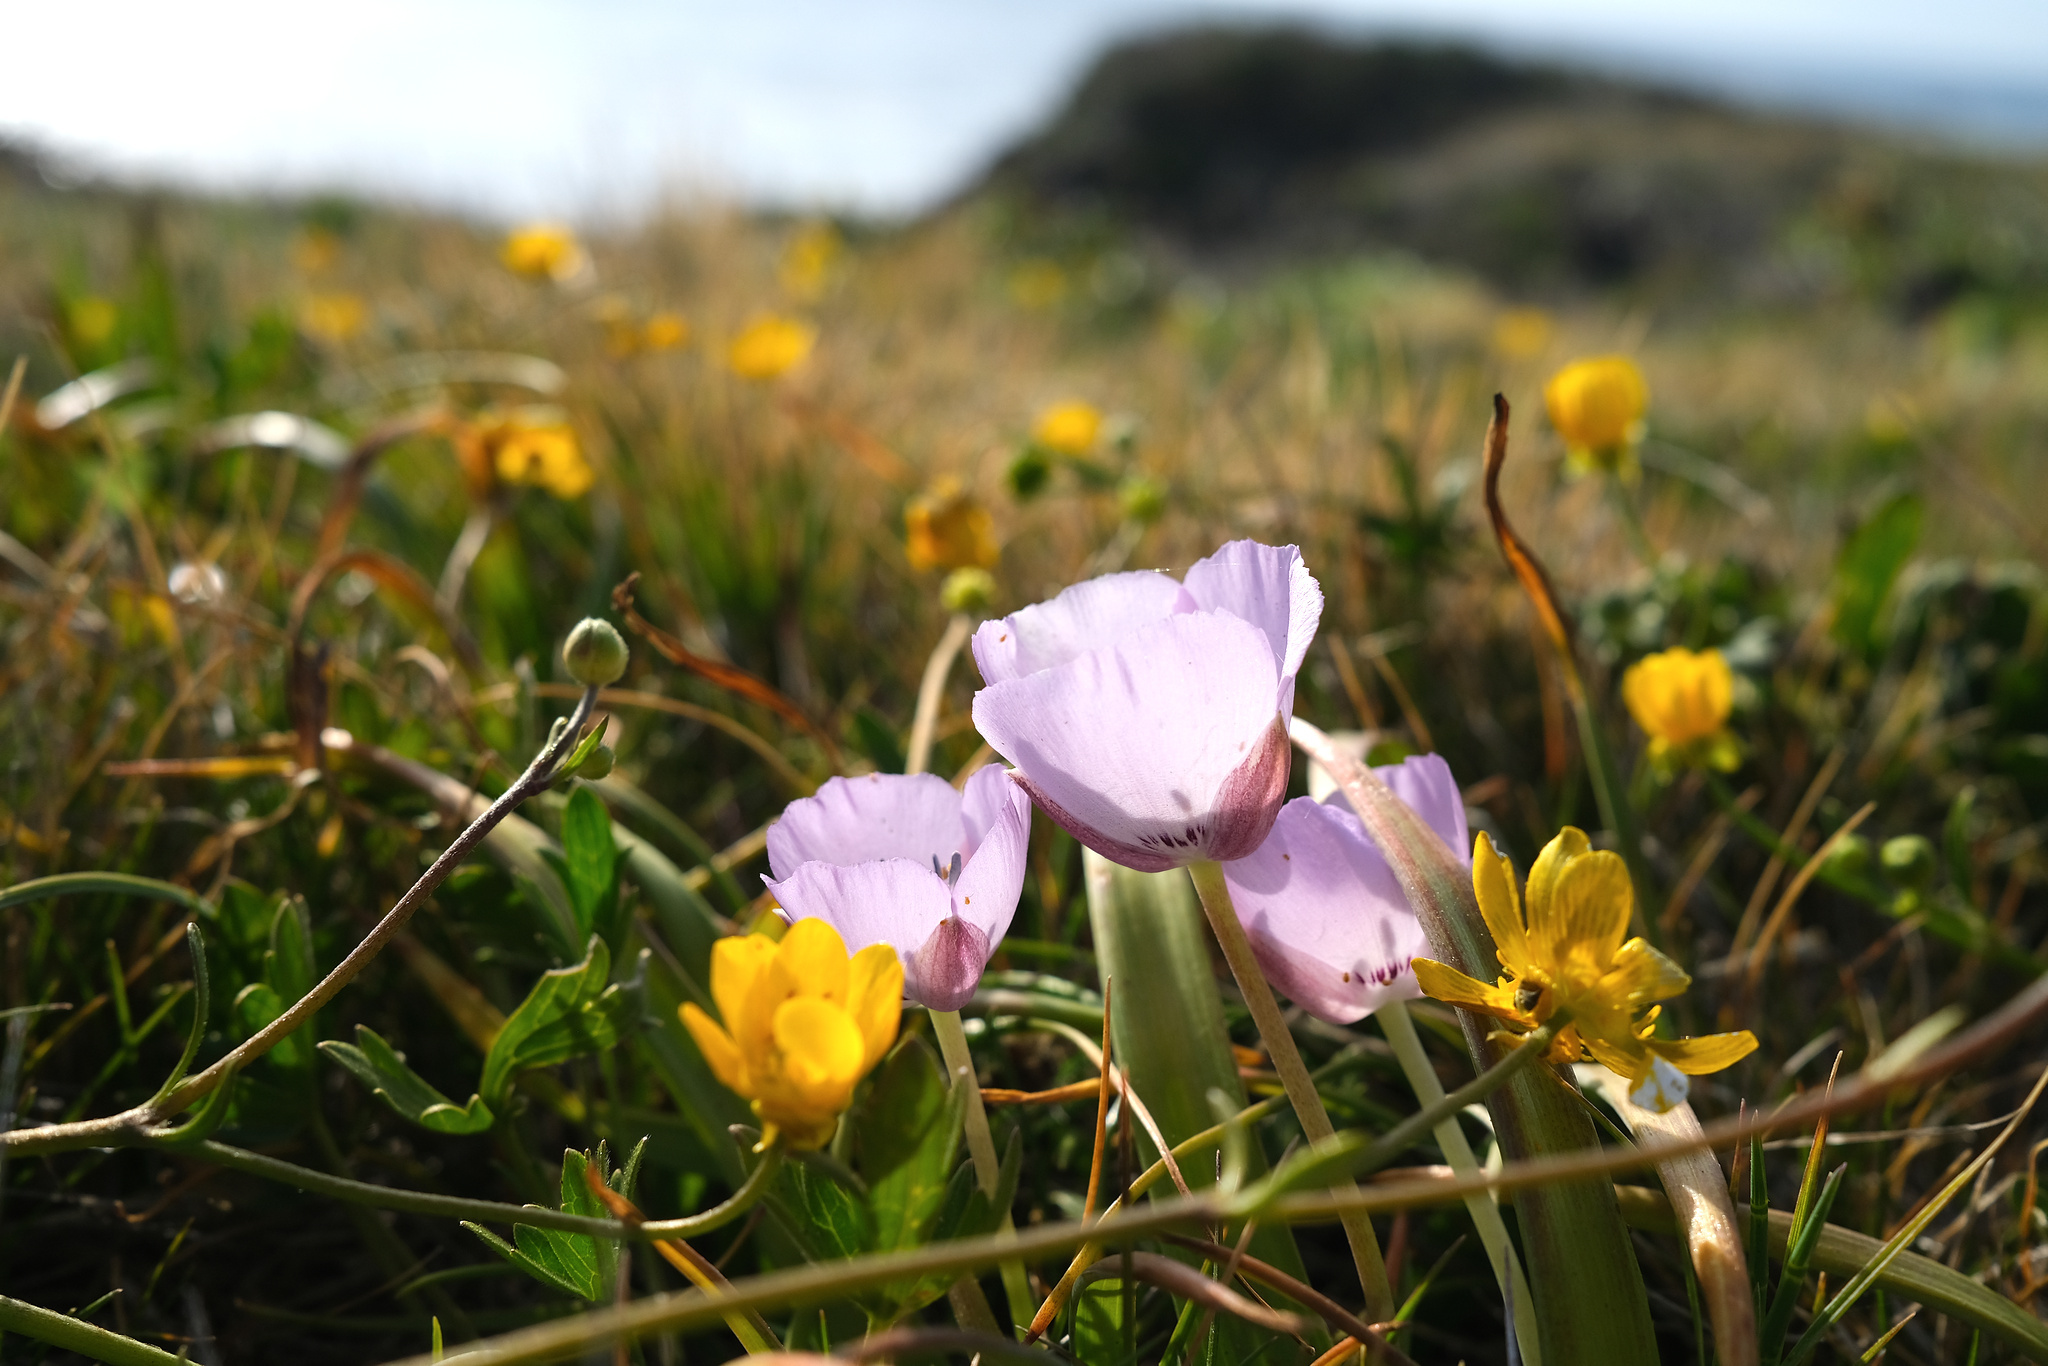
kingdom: Plantae
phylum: Tracheophyta
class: Liliopsida
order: Liliales
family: Liliaceae
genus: Calochortus
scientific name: Calochortus uniflorus
